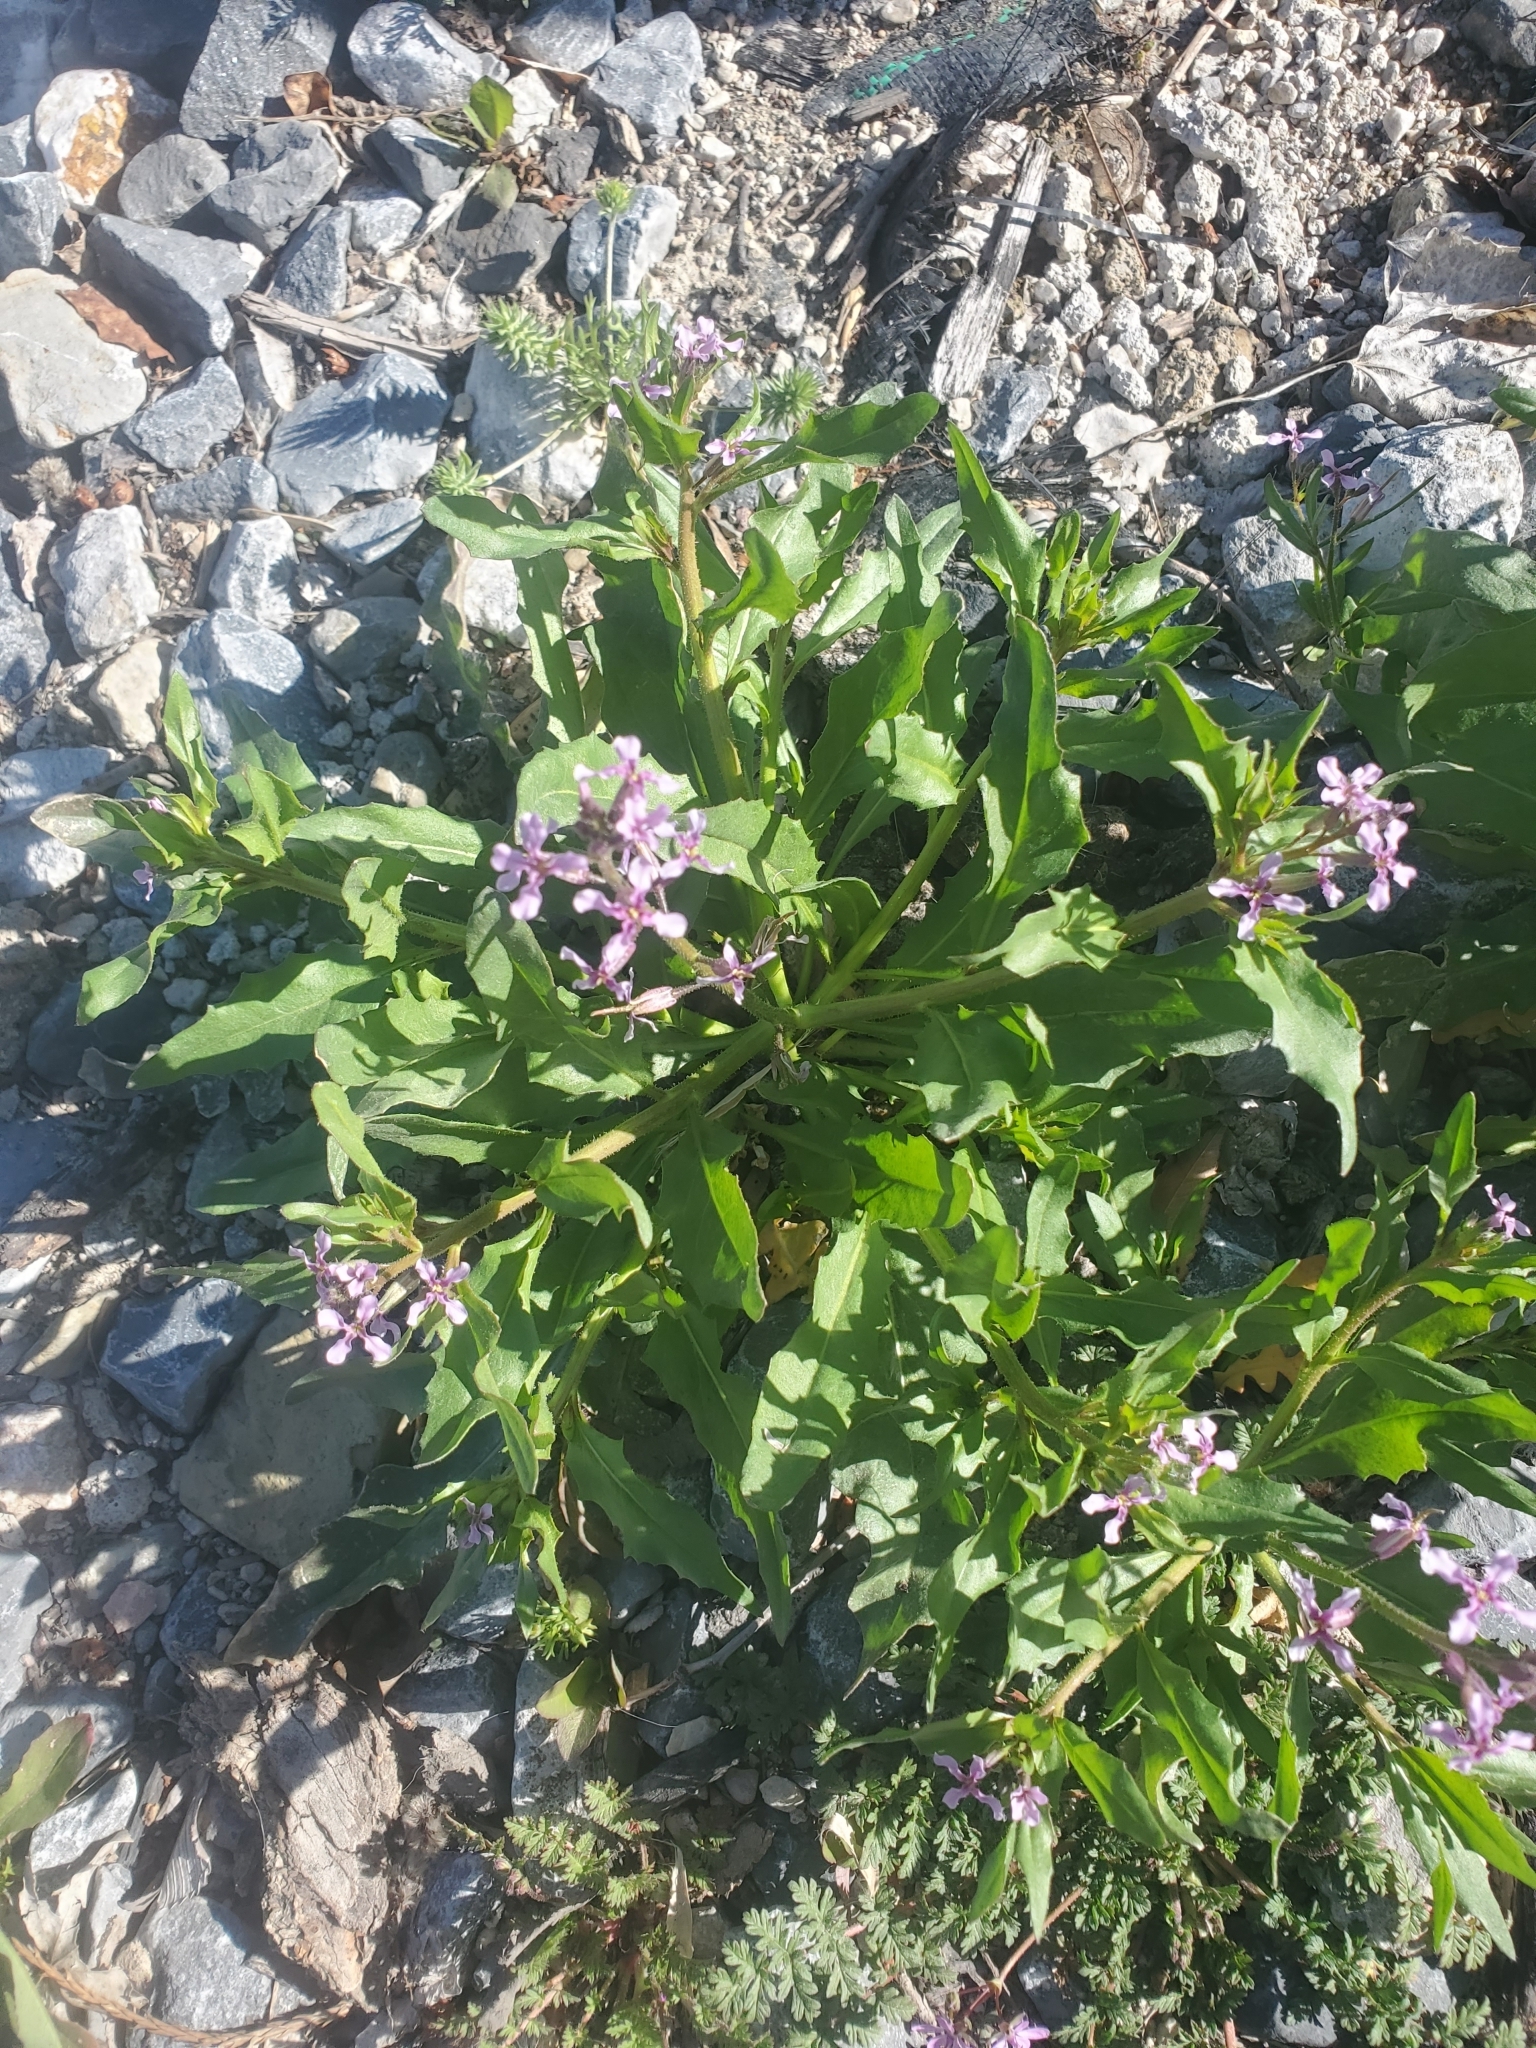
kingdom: Plantae
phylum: Tracheophyta
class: Magnoliopsida
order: Brassicales
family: Brassicaceae
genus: Chorispora
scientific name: Chorispora tenella
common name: Crossflower
